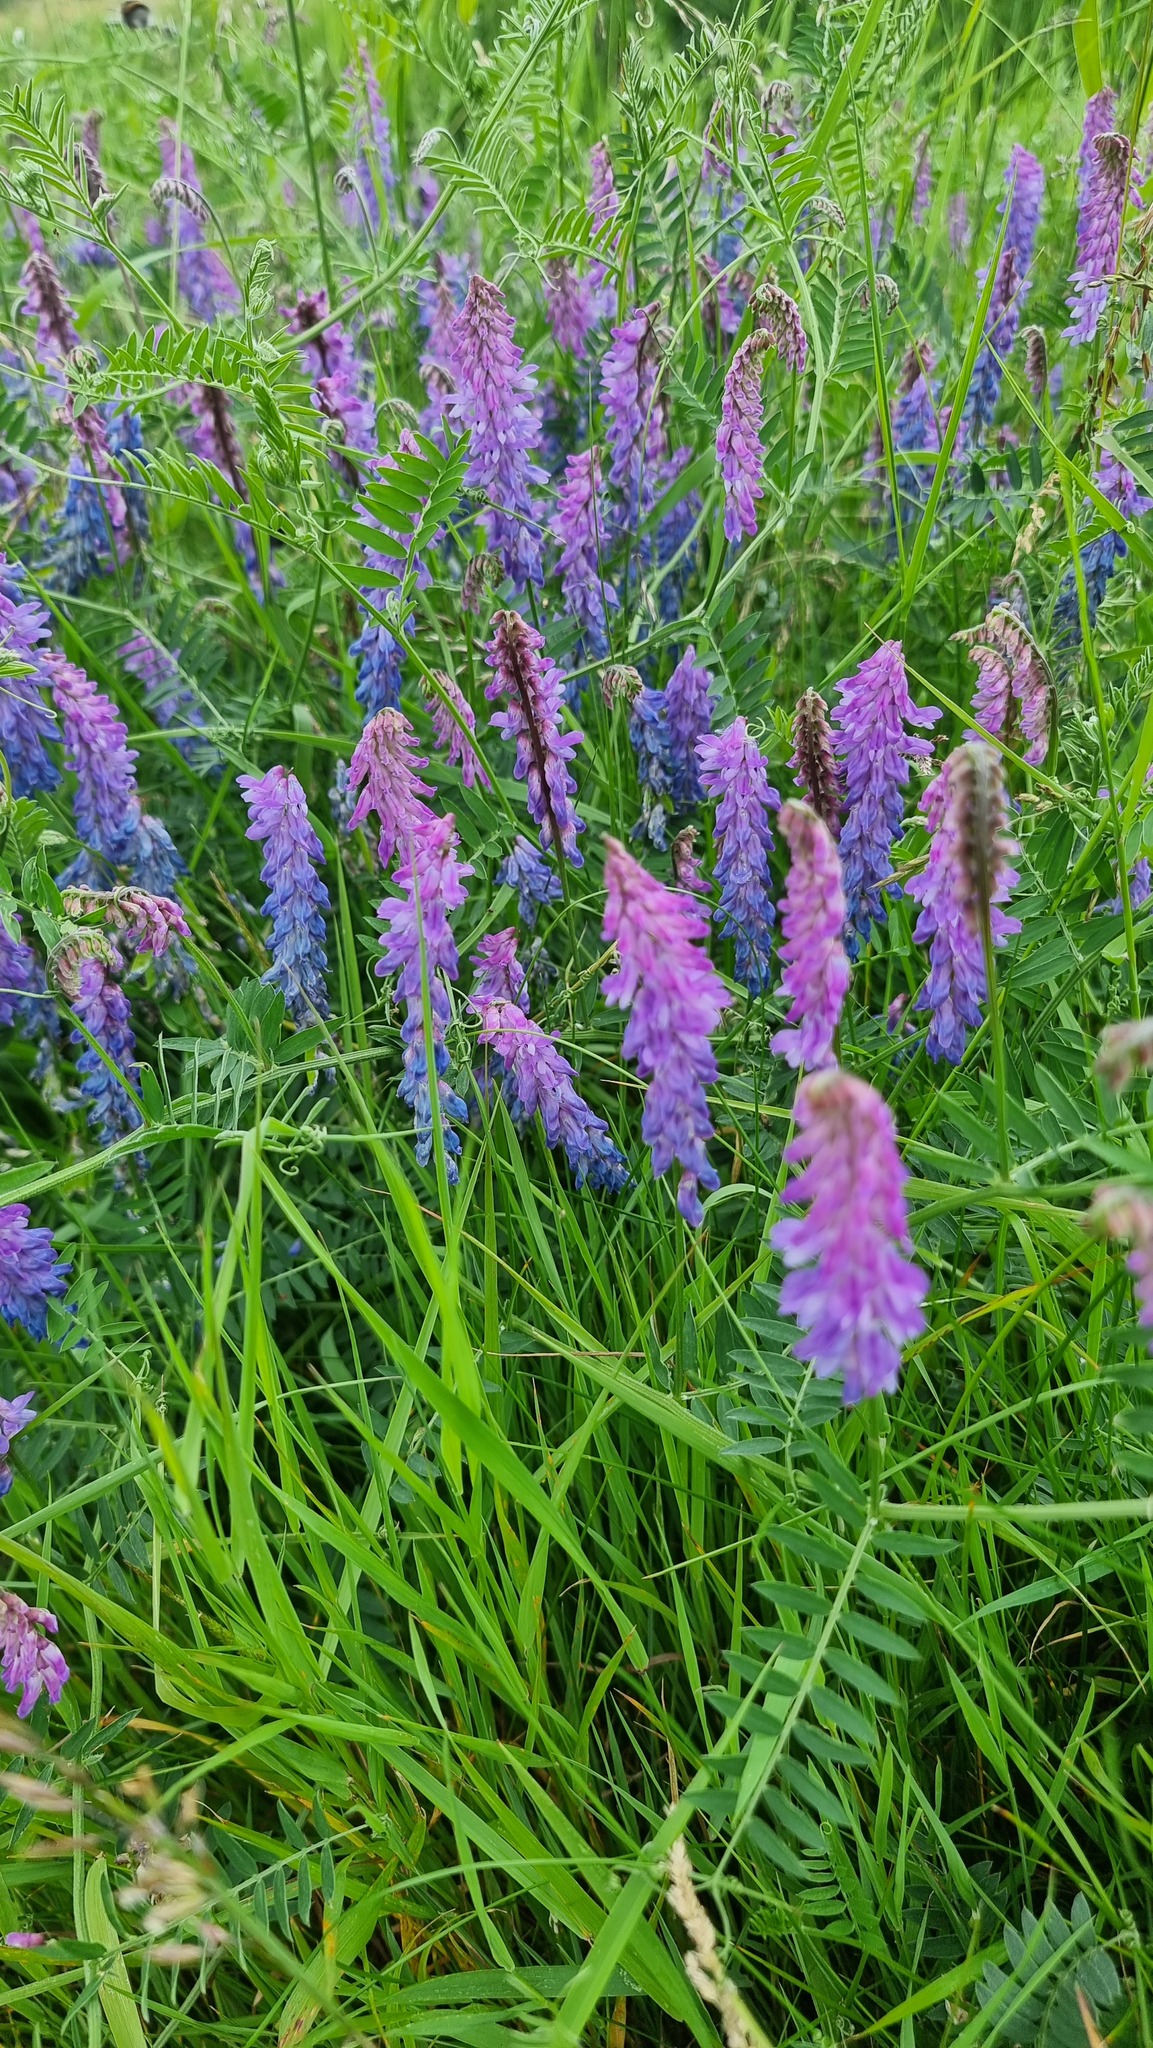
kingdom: Plantae
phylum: Tracheophyta
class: Magnoliopsida
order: Fabales
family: Fabaceae
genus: Vicia
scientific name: Vicia cracca
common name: Bird vetch
